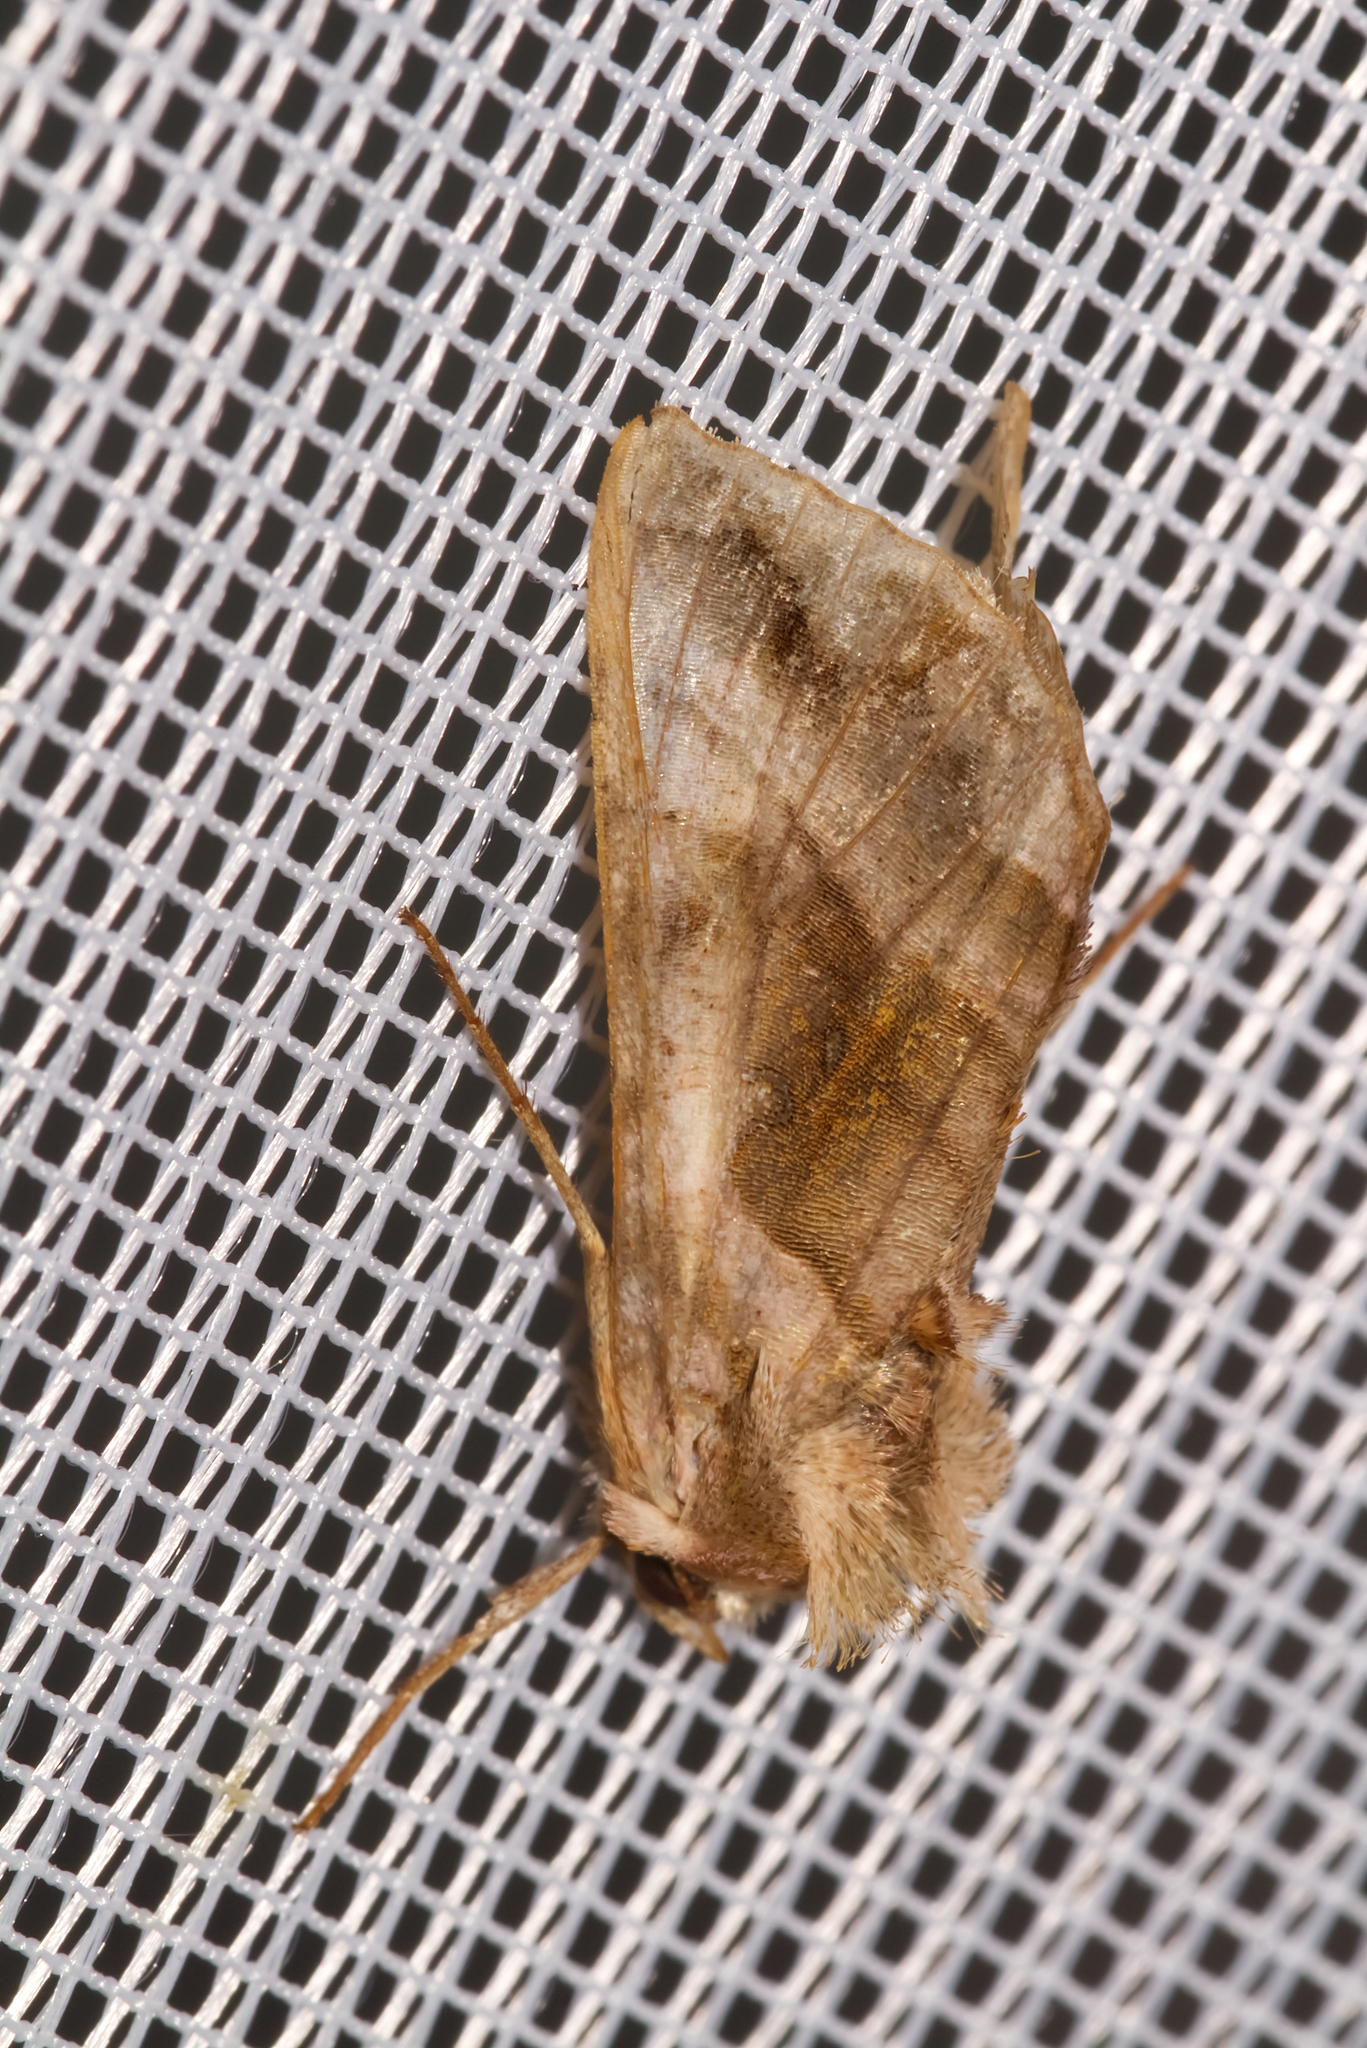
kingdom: Animalia
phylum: Arthropoda
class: Insecta
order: Lepidoptera
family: Noctuidae
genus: Autographa
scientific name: Autographa jota
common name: Plain golden y
